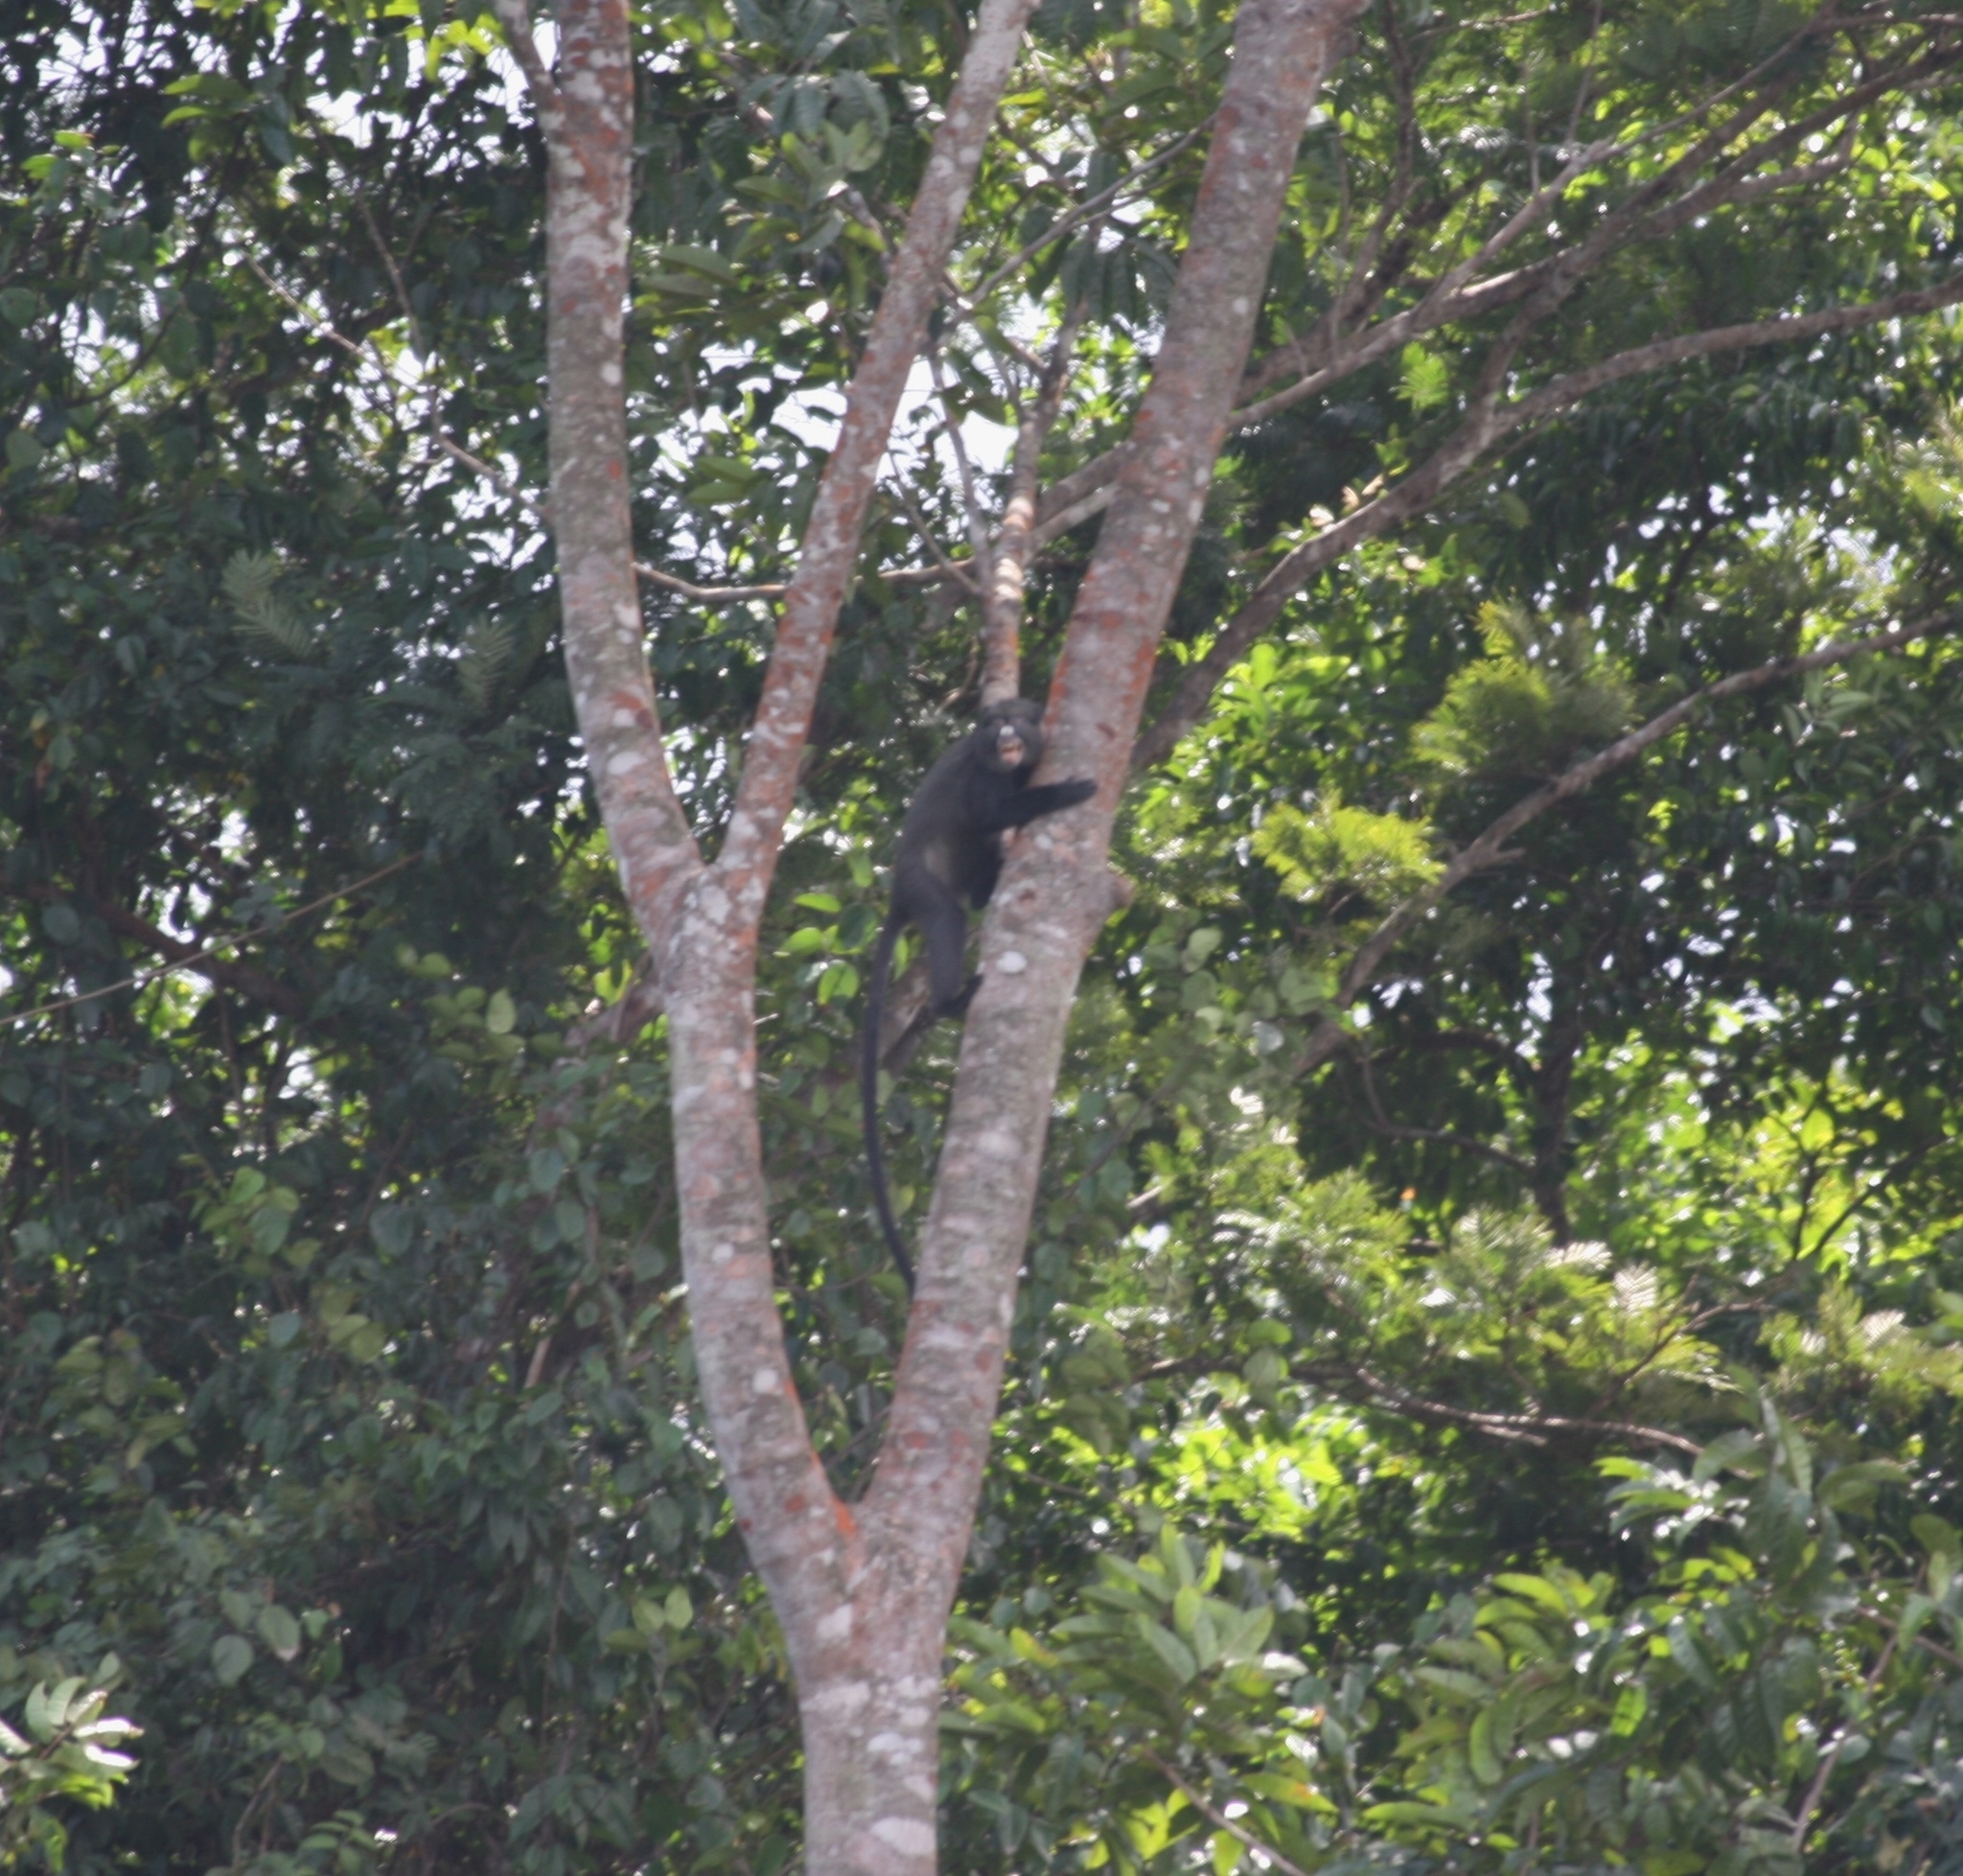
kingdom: Animalia
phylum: Chordata
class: Mammalia
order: Primates
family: Cercopithecidae
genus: Cercopithecus
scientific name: Cercopithecus nictitans
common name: Greater spot-nosed monkey
